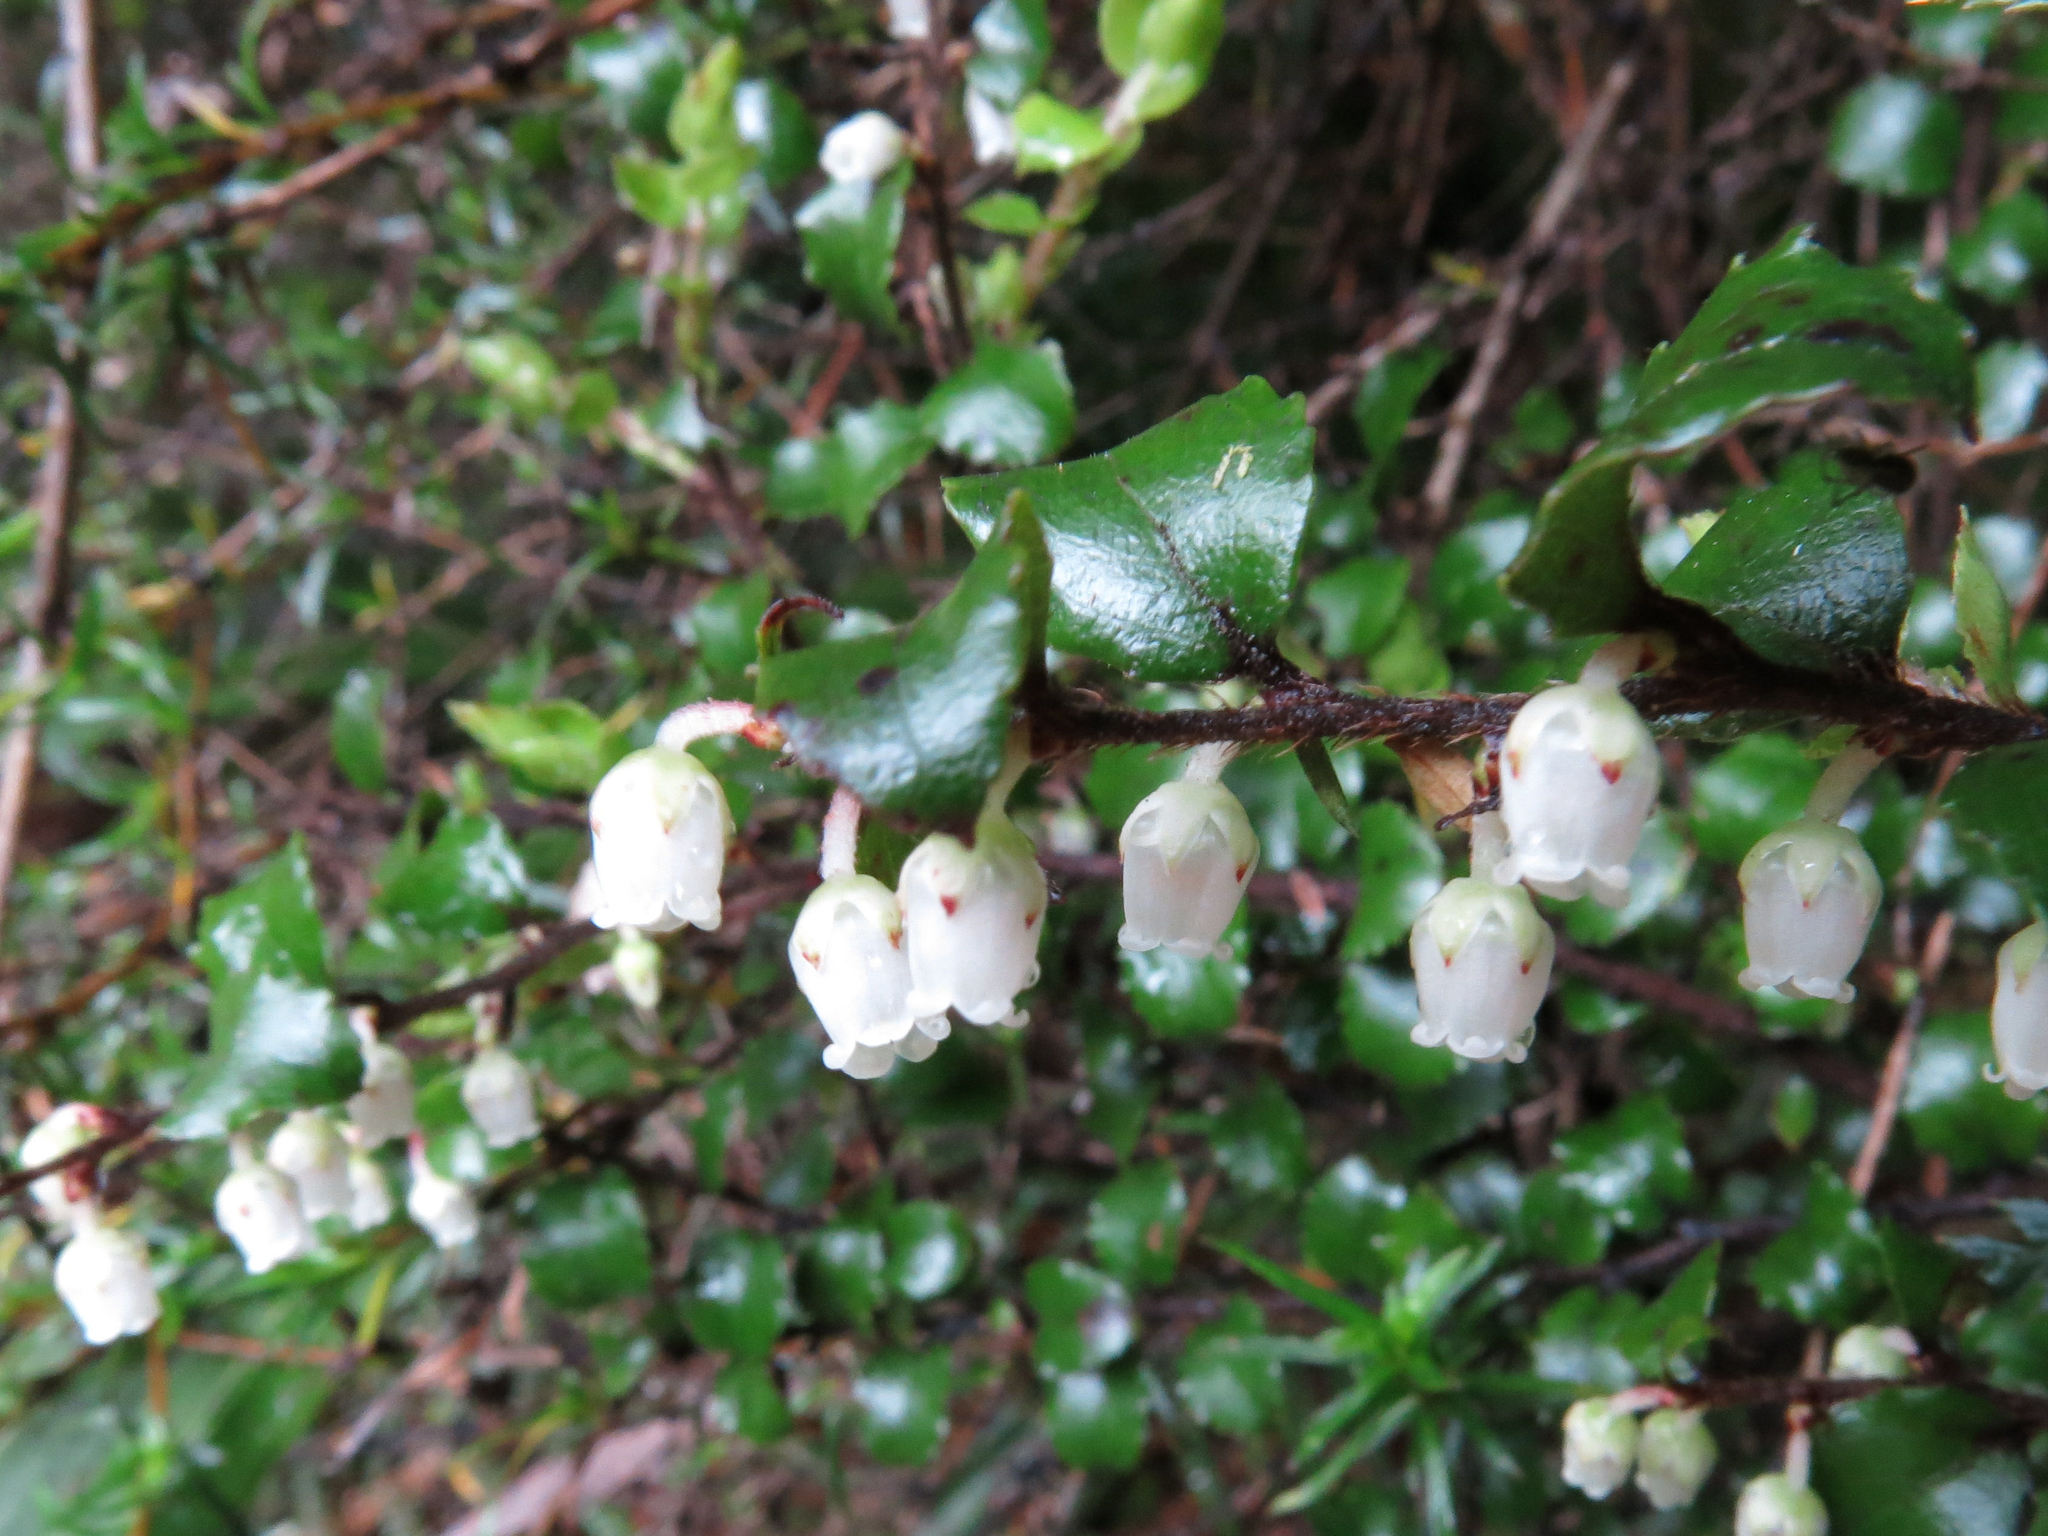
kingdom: Plantae
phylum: Tracheophyta
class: Magnoliopsida
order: Ericales
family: Ericaceae
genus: Gaultheria
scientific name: Gaultheria antipoda
